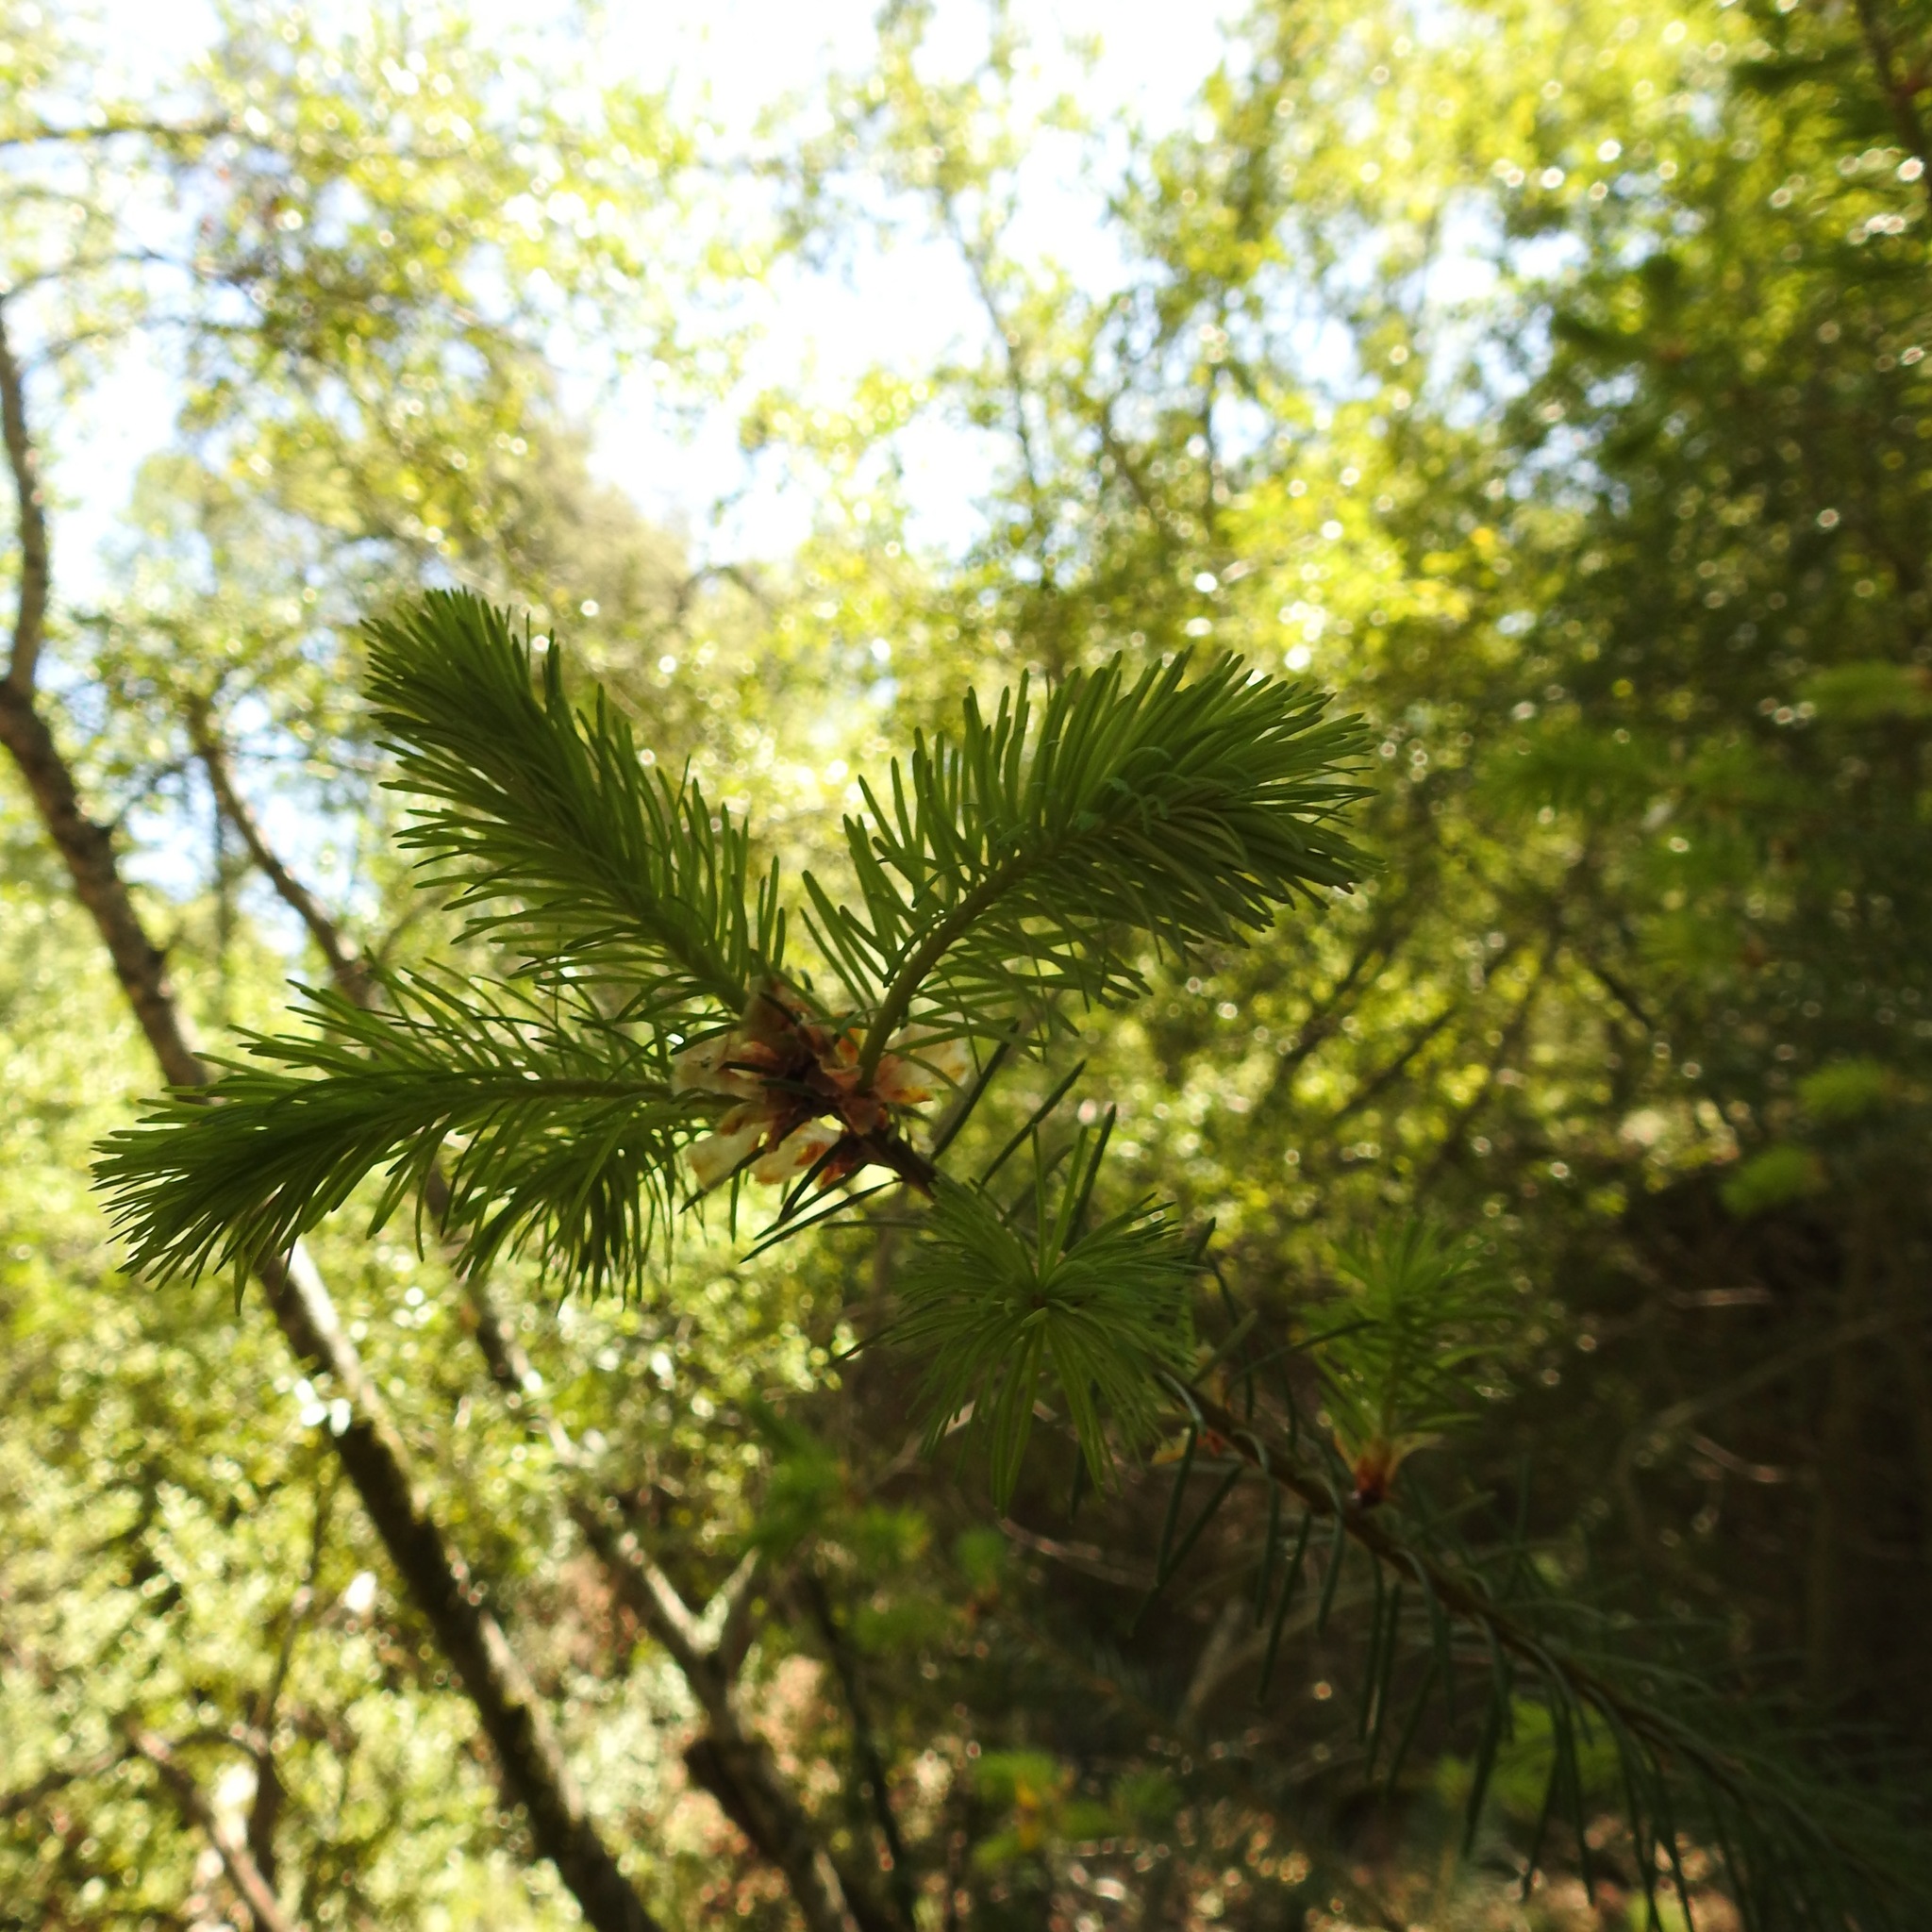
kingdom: Plantae
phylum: Tracheophyta
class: Pinopsida
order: Pinales
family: Pinaceae
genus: Pseudotsuga
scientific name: Pseudotsuga menziesii
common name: Douglas fir
